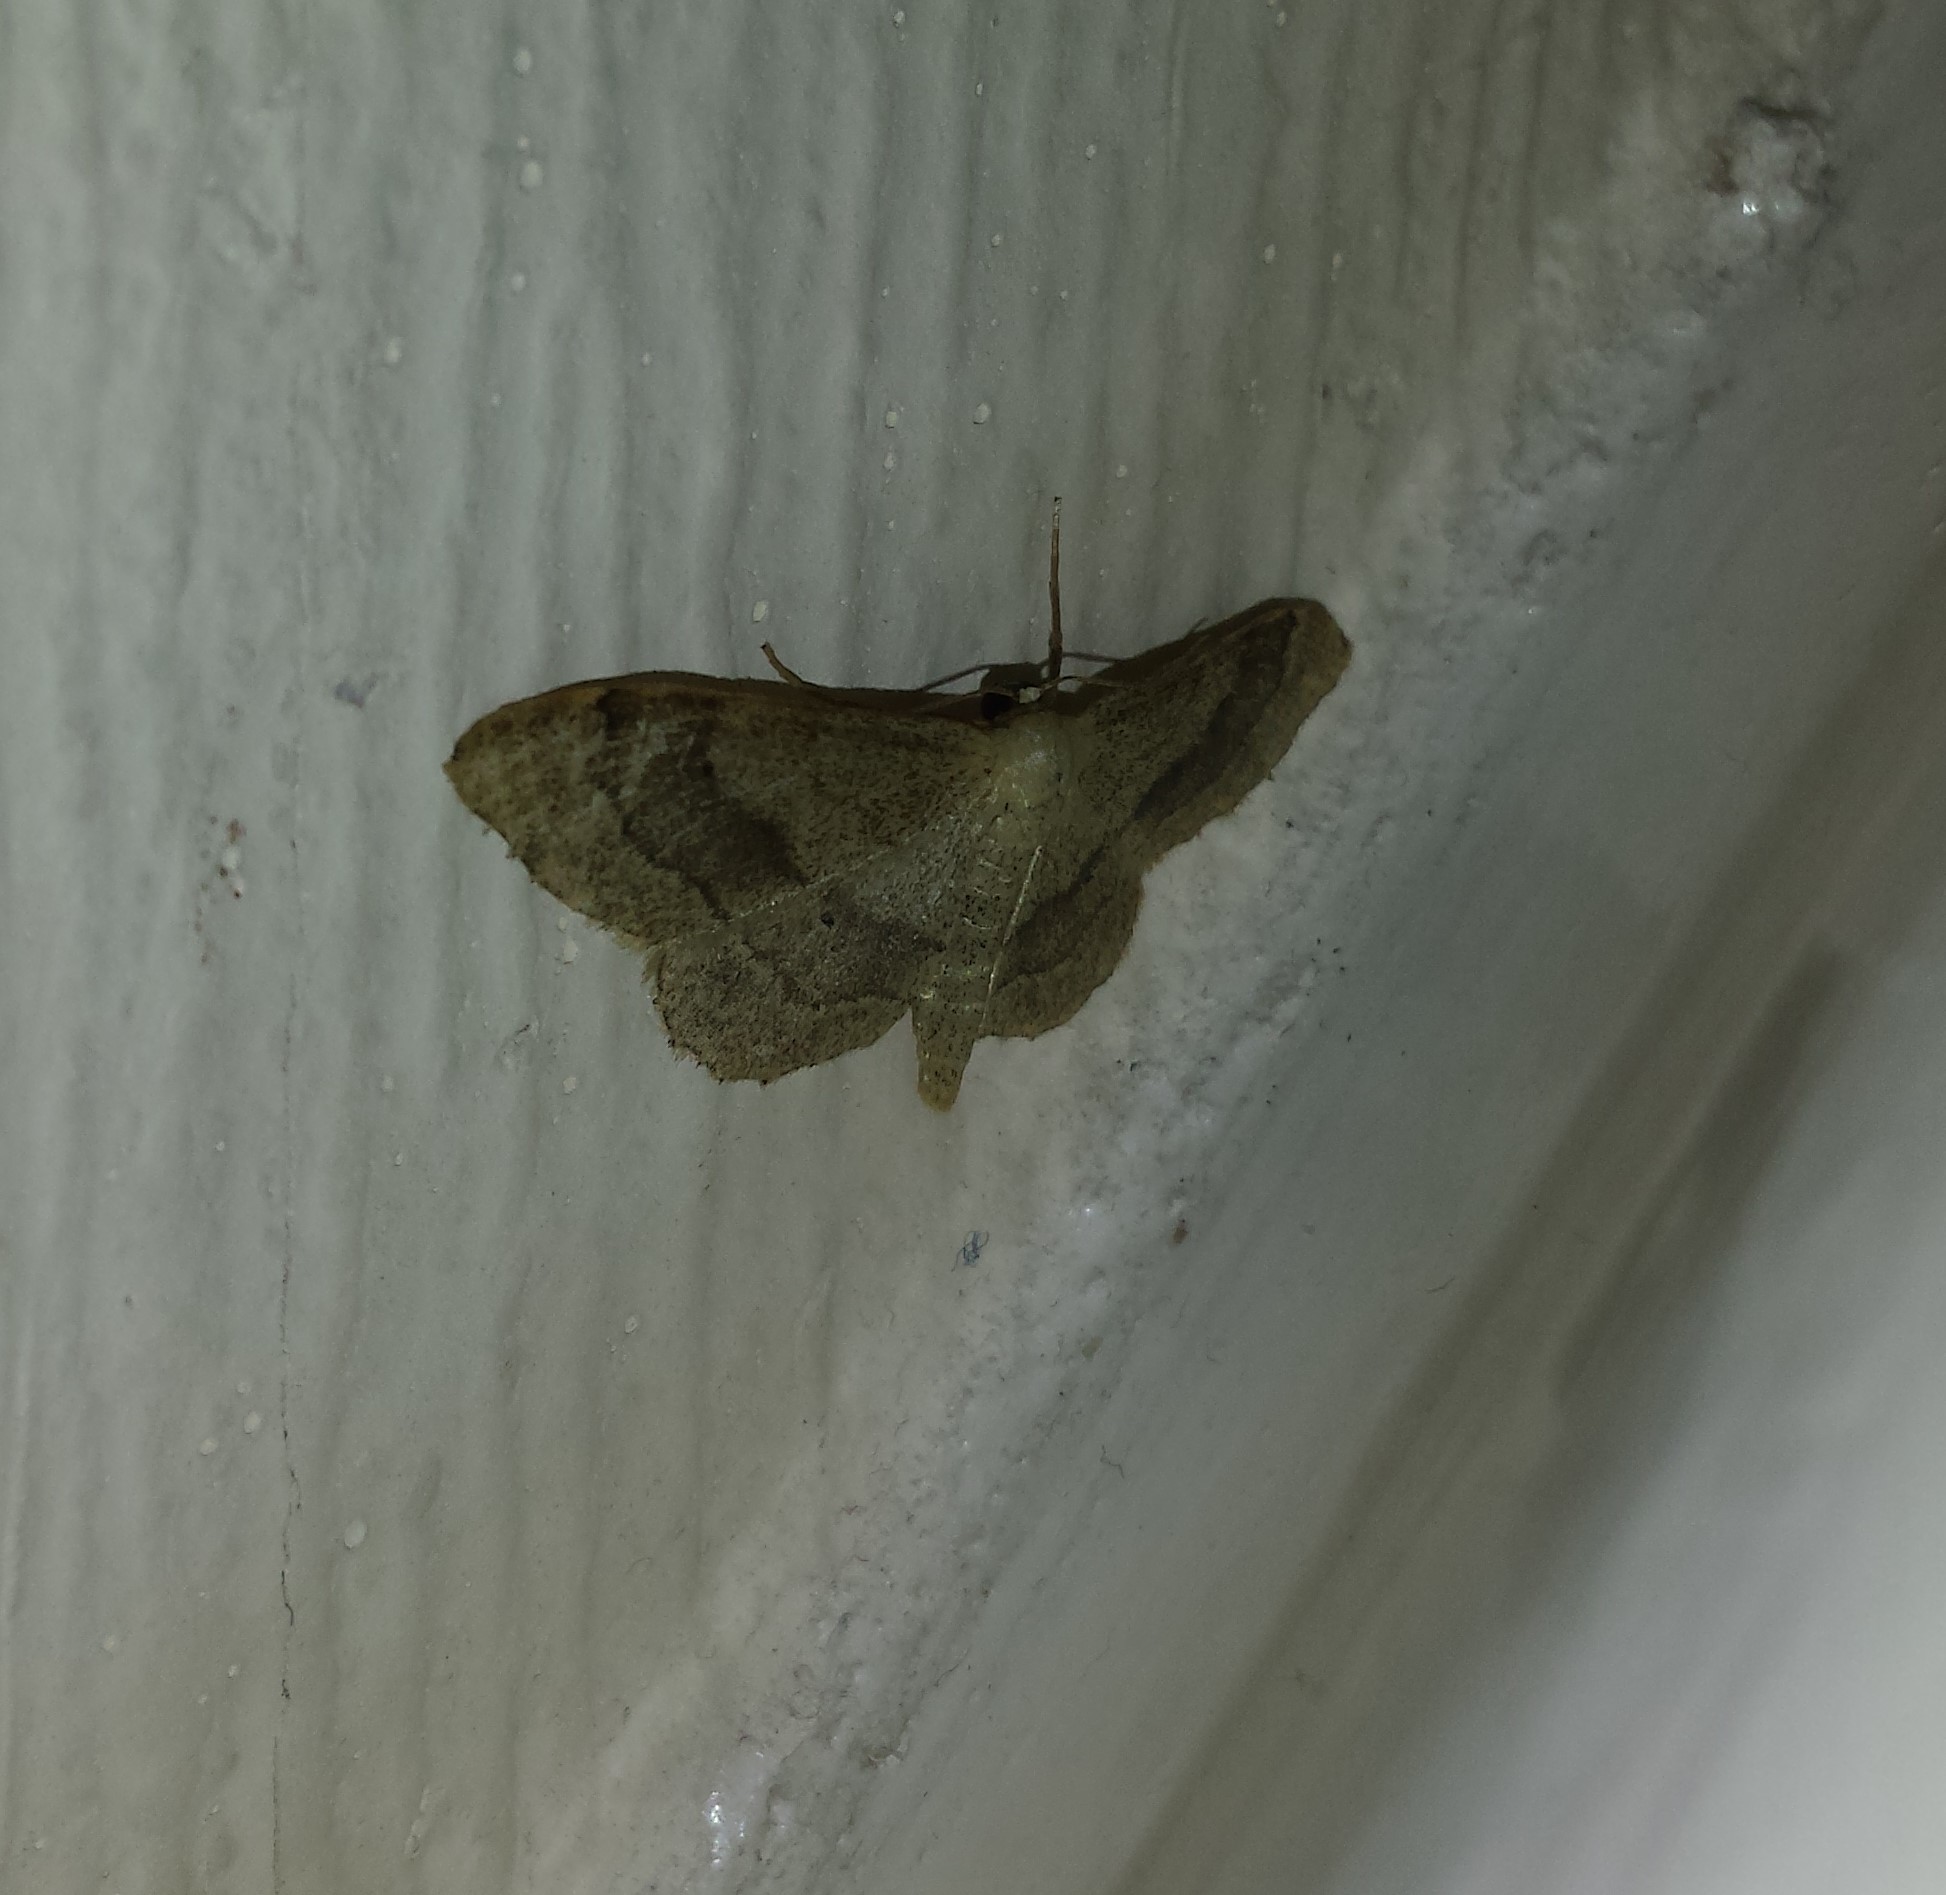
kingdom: Animalia
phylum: Arthropoda
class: Insecta
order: Lepidoptera
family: Geometridae
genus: Idaea
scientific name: Idaea aversata
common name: Riband wave
